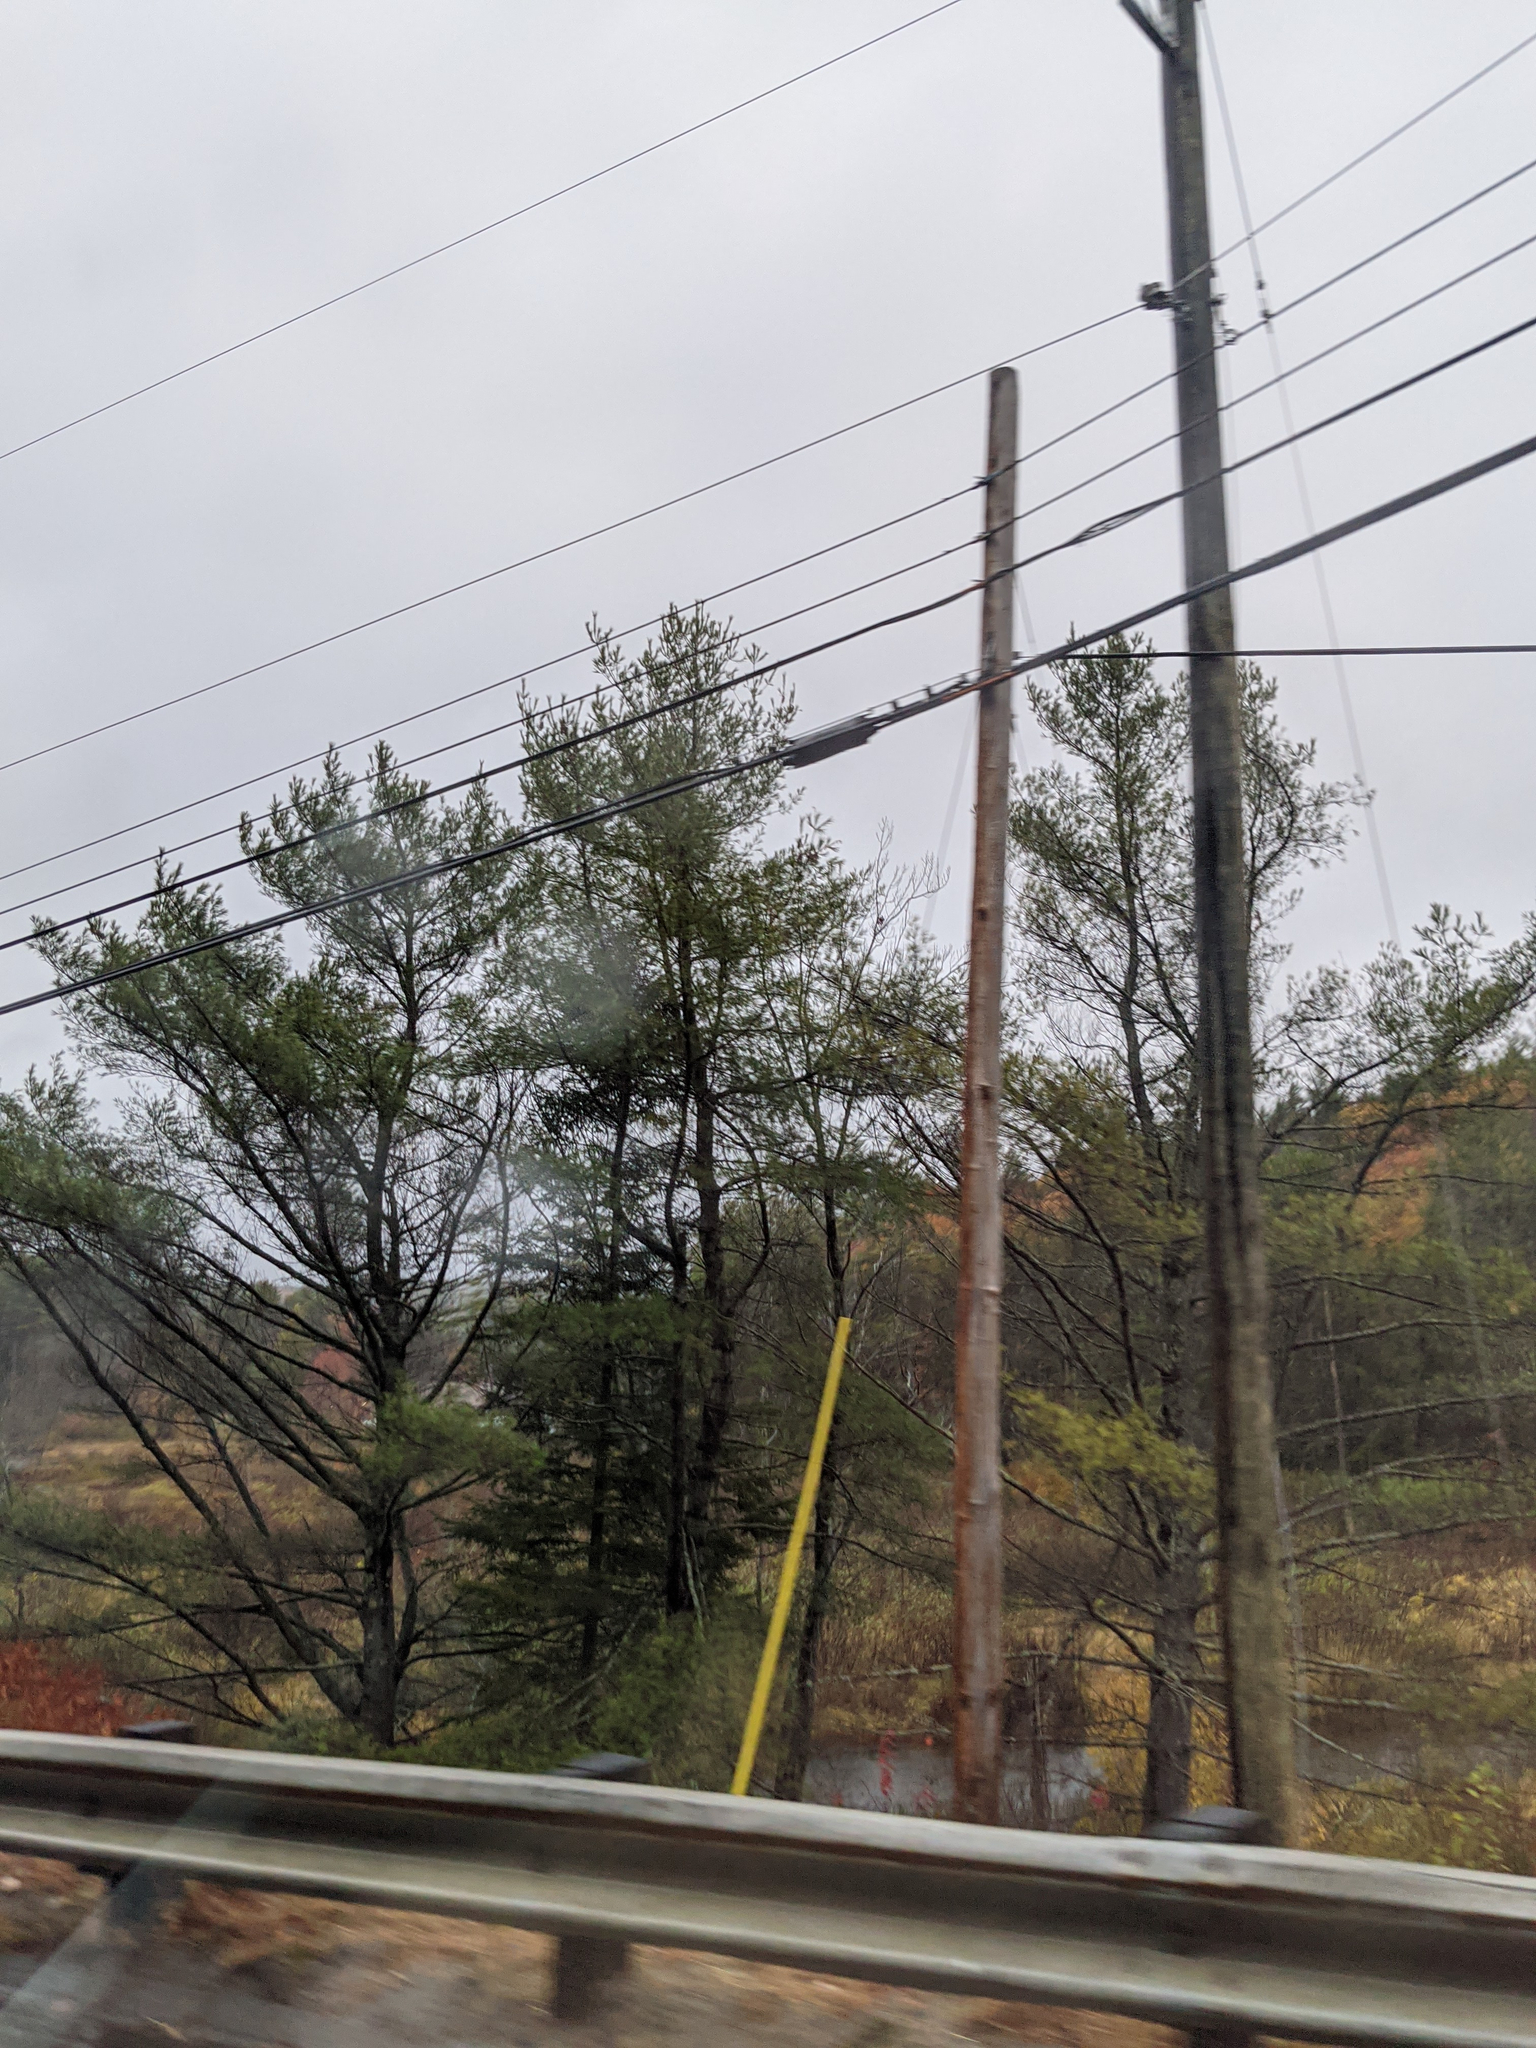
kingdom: Plantae
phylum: Tracheophyta
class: Pinopsida
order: Pinales
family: Pinaceae
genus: Pinus
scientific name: Pinus strobus
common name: Weymouth pine
